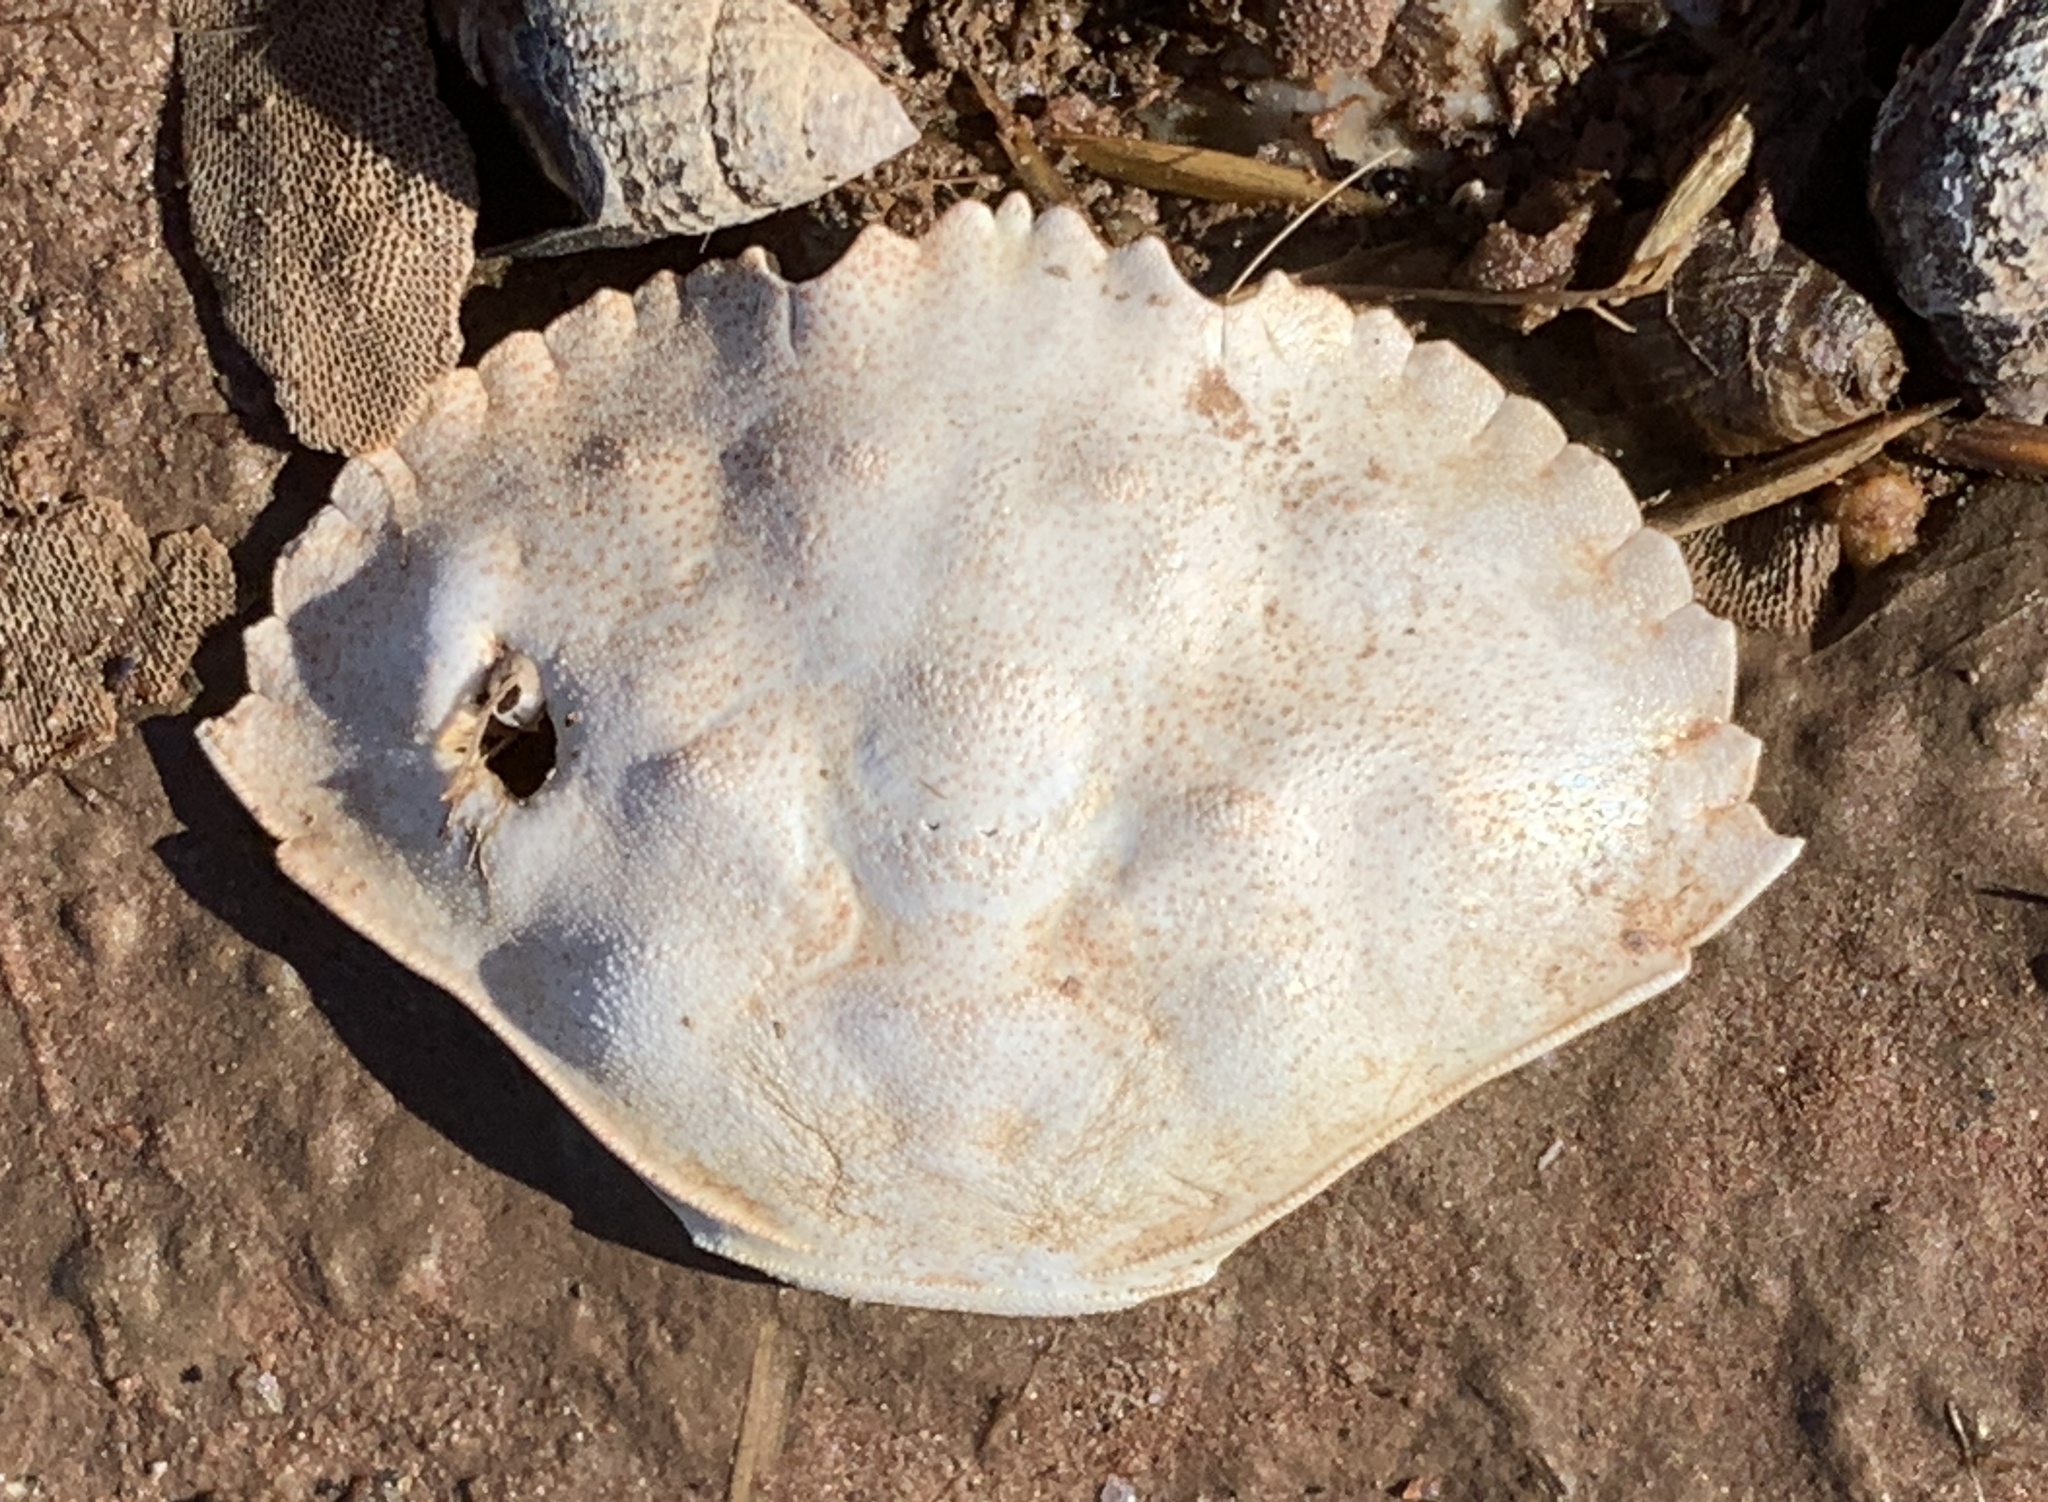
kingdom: Animalia
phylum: Arthropoda
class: Malacostraca
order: Decapoda
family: Cancridae
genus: Cancer
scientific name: Cancer irroratus
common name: Atlantic rock crab
